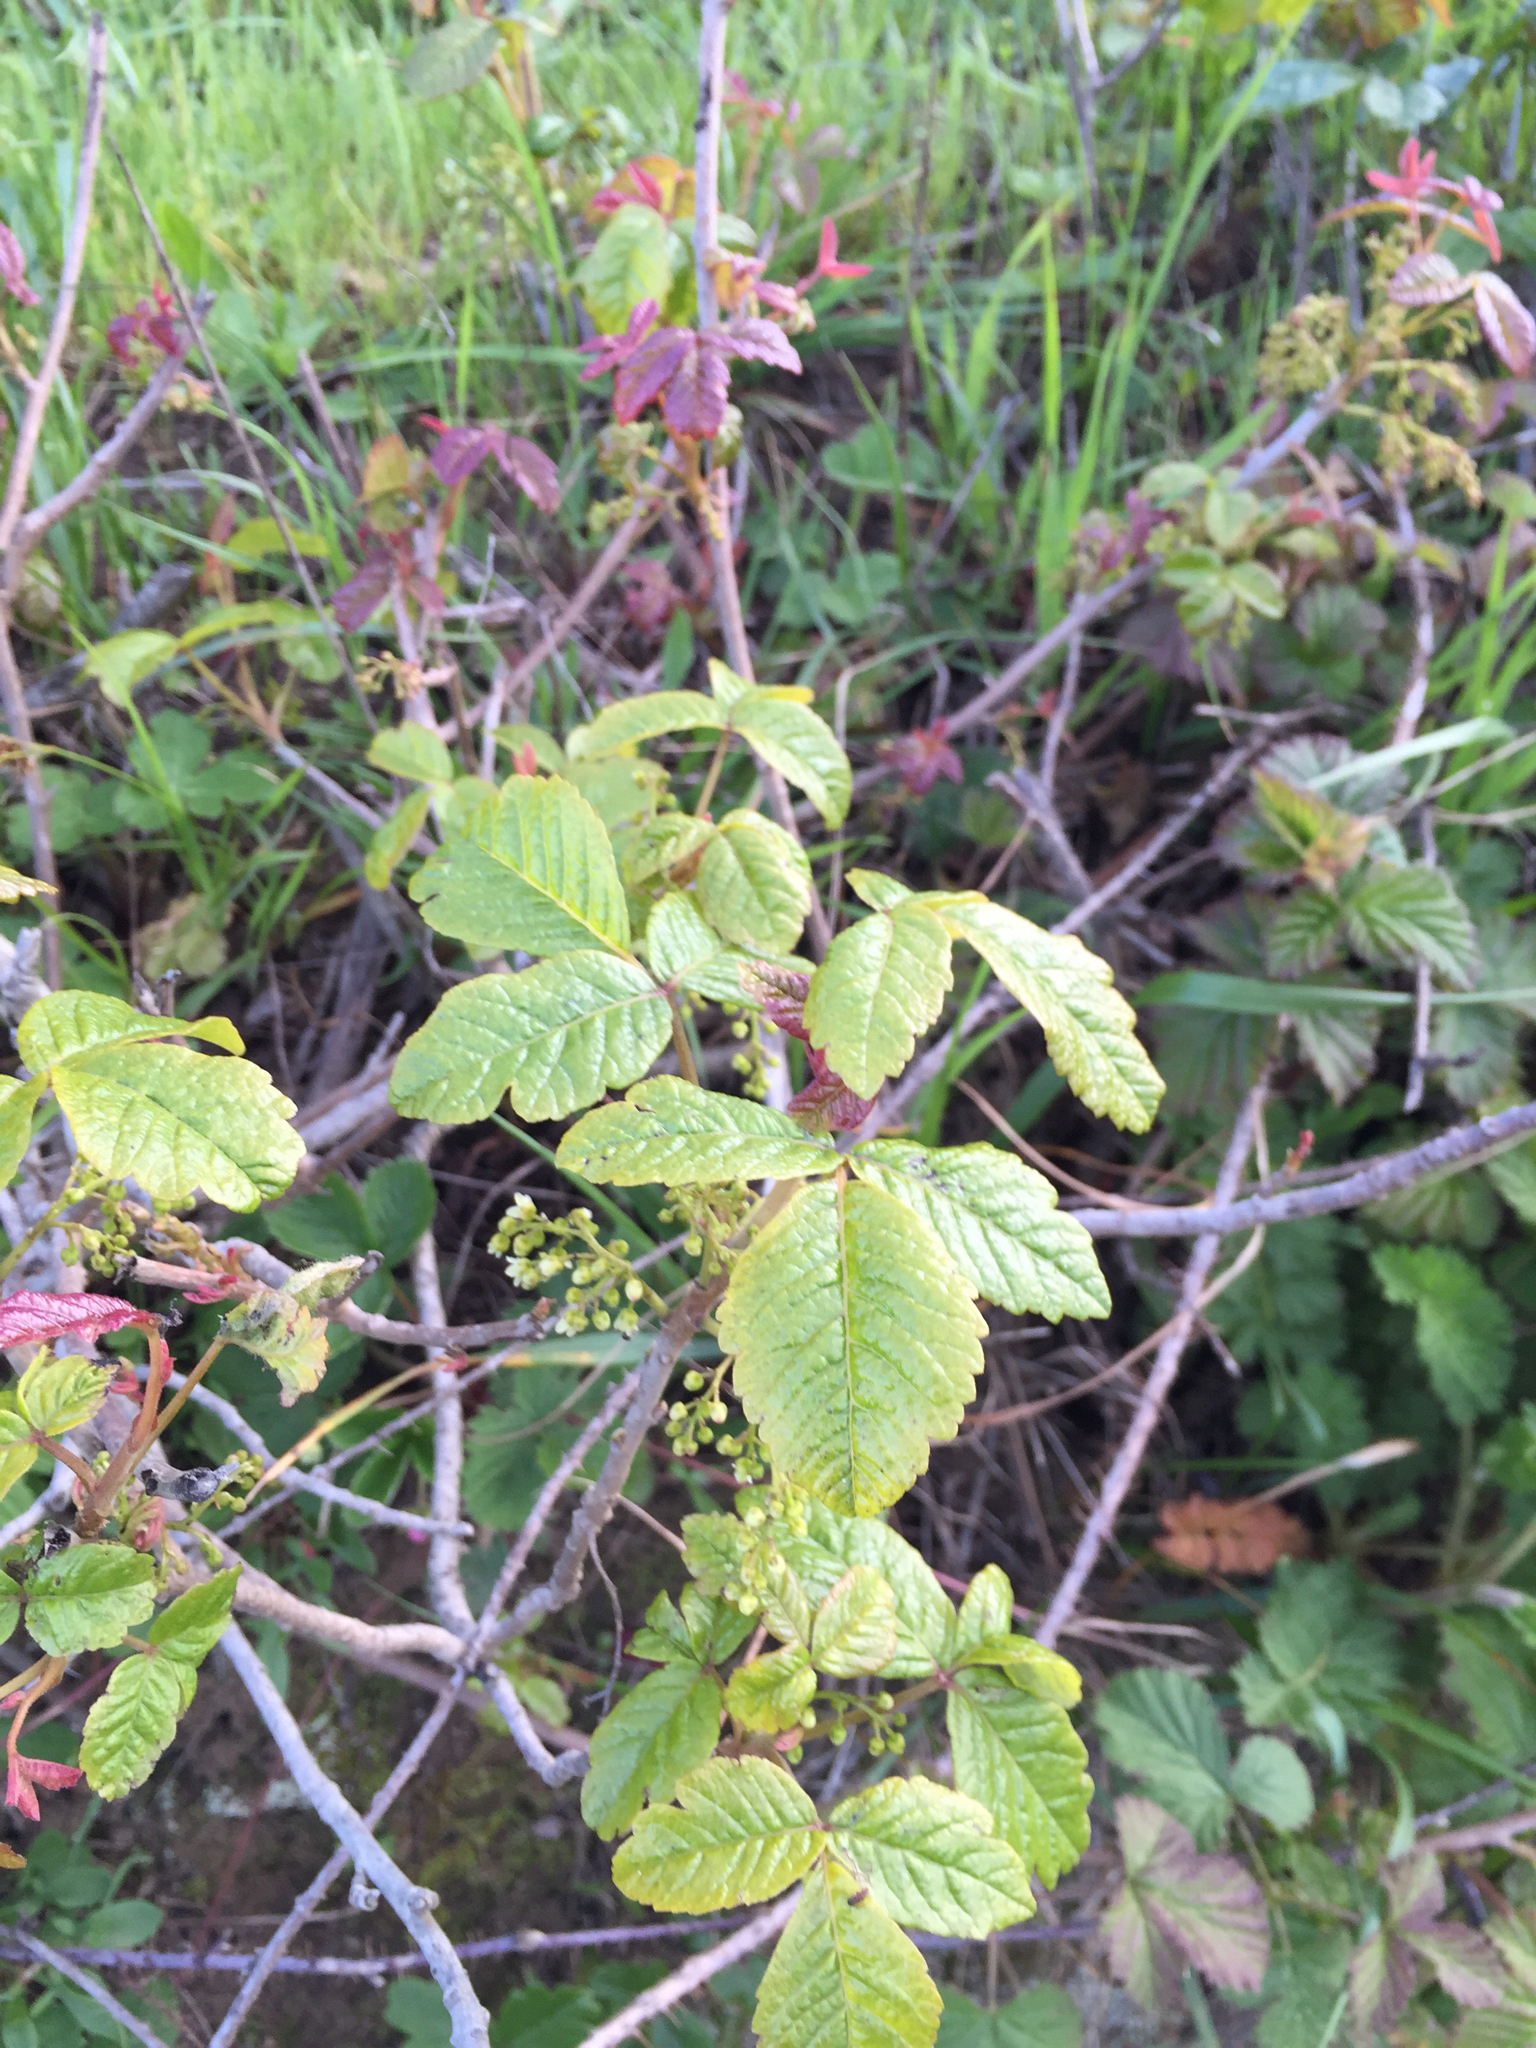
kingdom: Plantae
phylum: Tracheophyta
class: Magnoliopsida
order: Sapindales
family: Anacardiaceae
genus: Toxicodendron
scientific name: Toxicodendron diversilobum
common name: Pacific poison-oak
